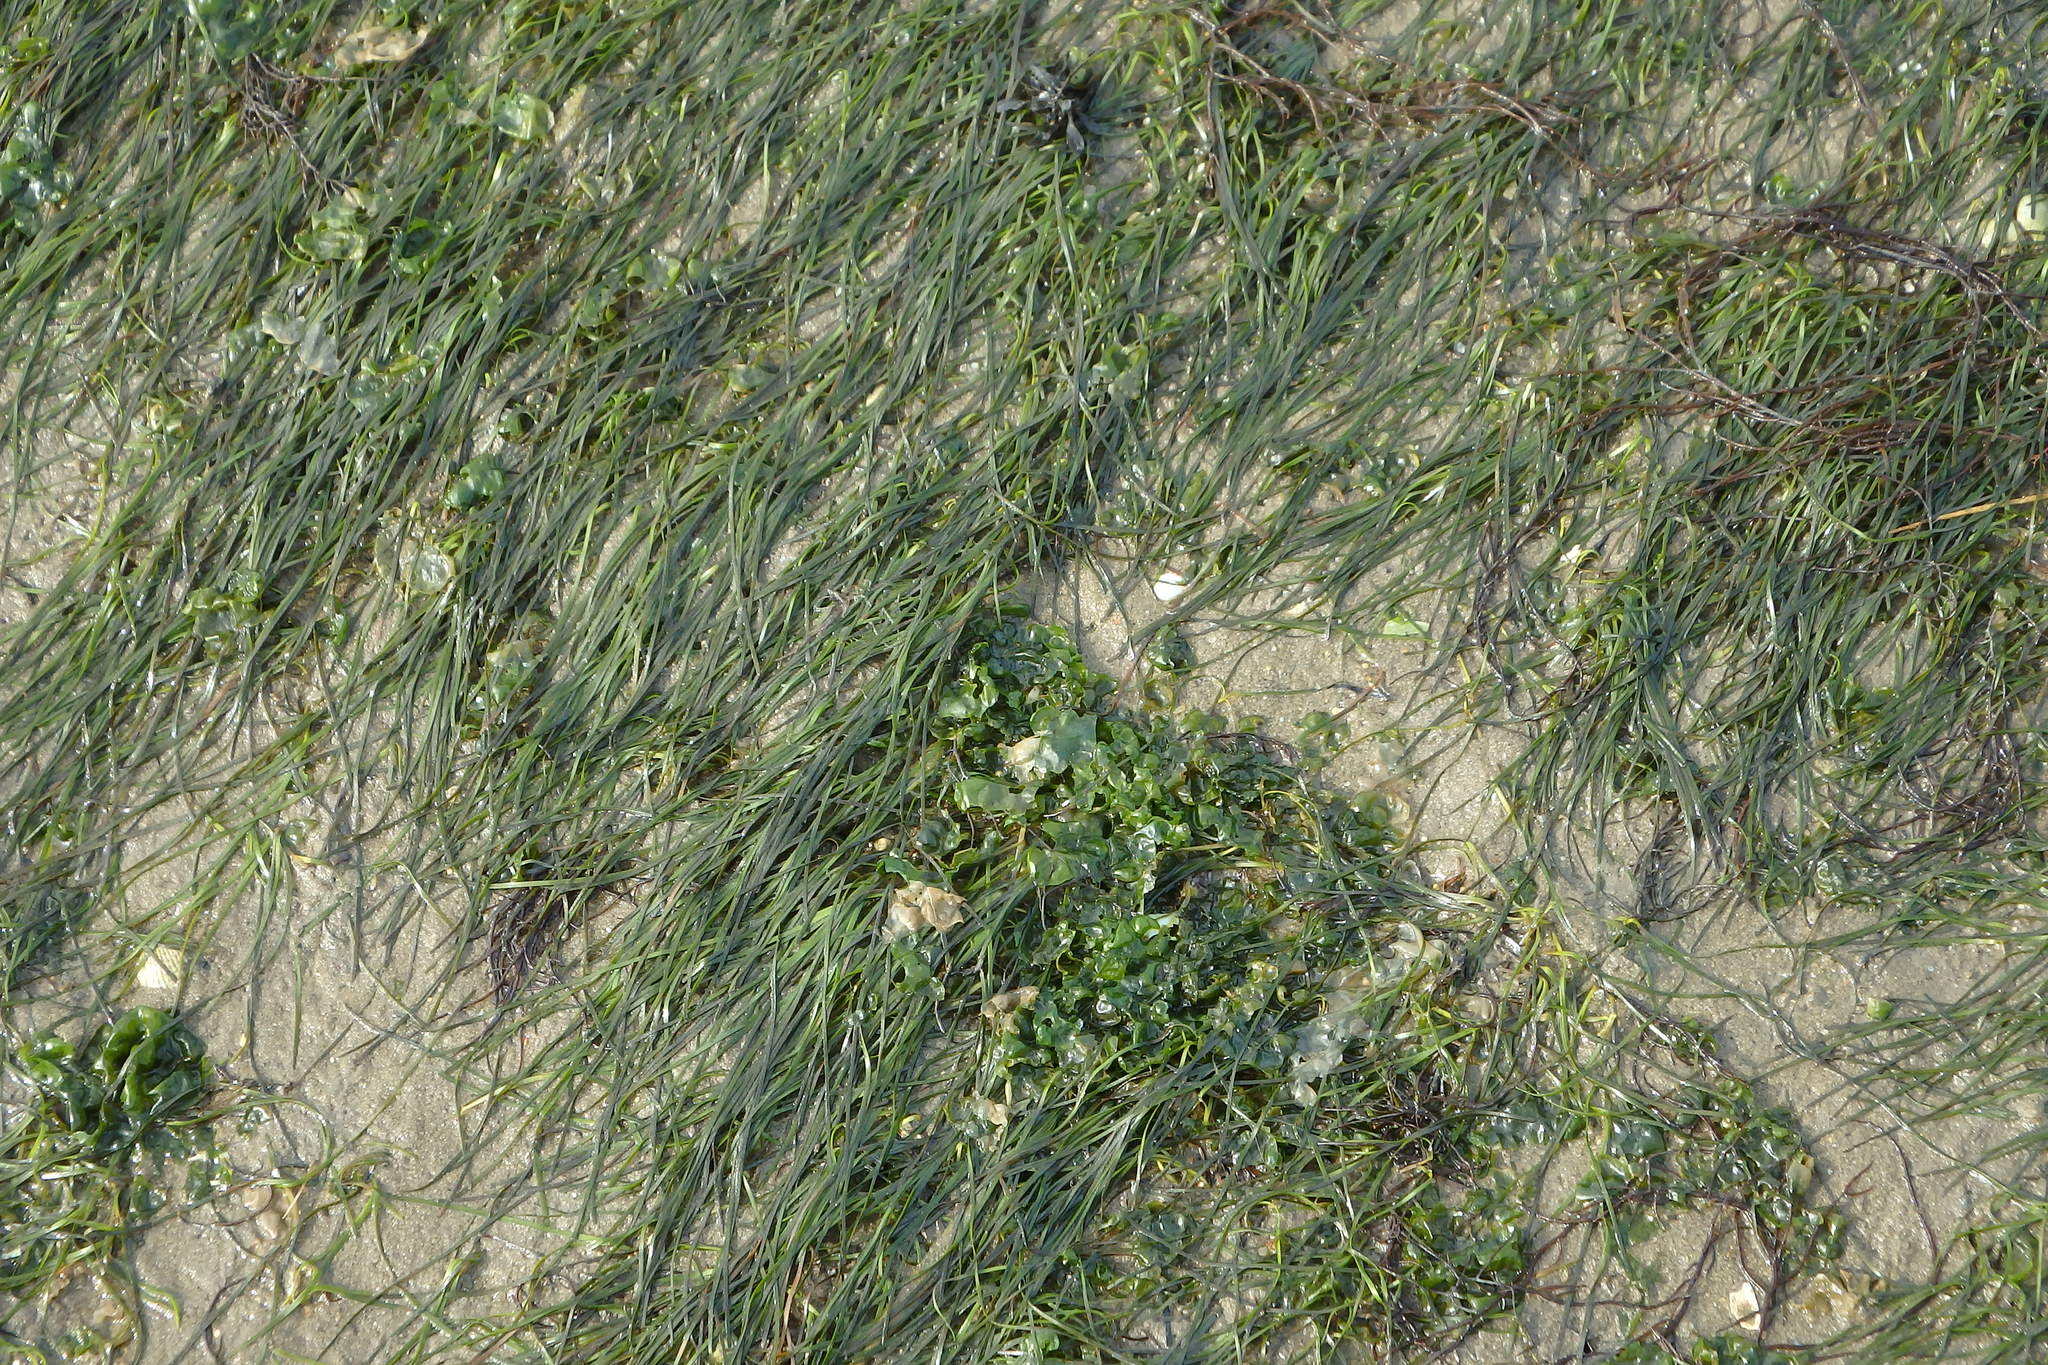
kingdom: Plantae
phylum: Tracheophyta
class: Liliopsida
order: Alismatales
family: Zosteraceae
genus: Zostera
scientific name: Zostera noltii
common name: Dwarf eelgrass
